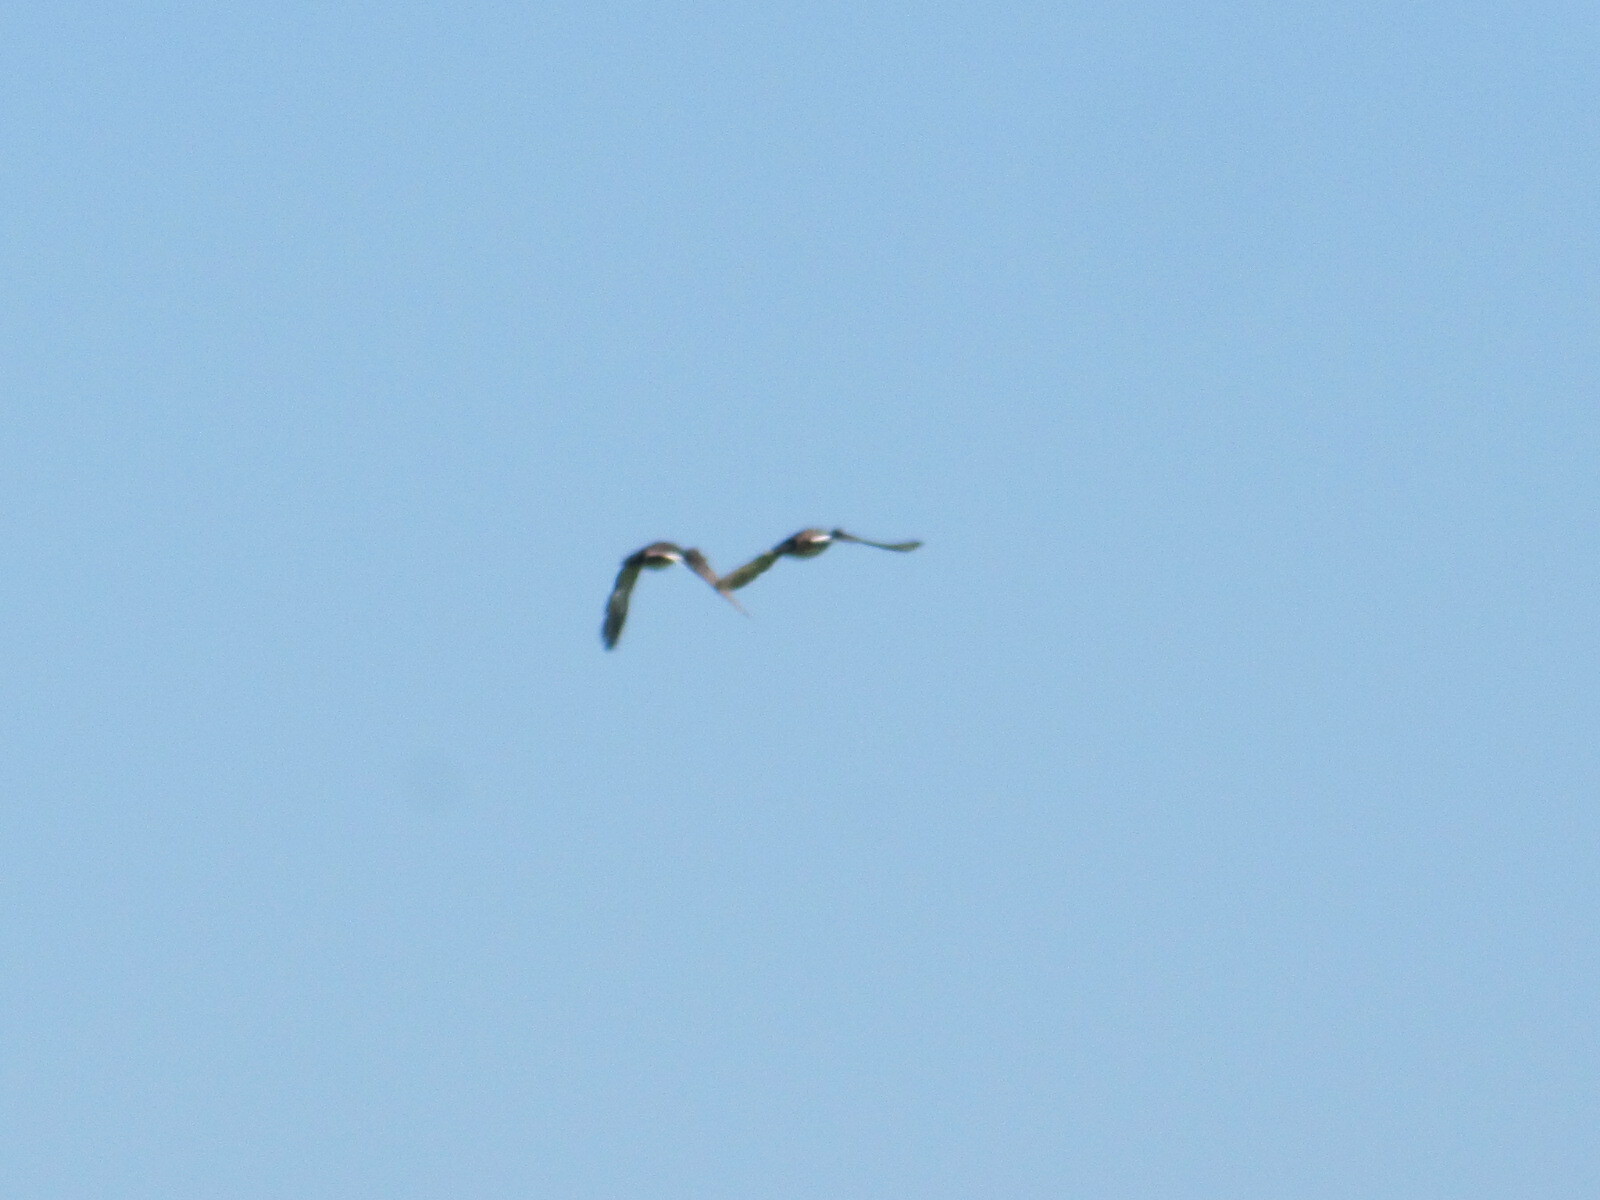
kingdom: Animalia
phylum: Chordata
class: Aves
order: Anseriformes
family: Anatidae
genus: Mareca
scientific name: Mareca strepera
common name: Gadwall
